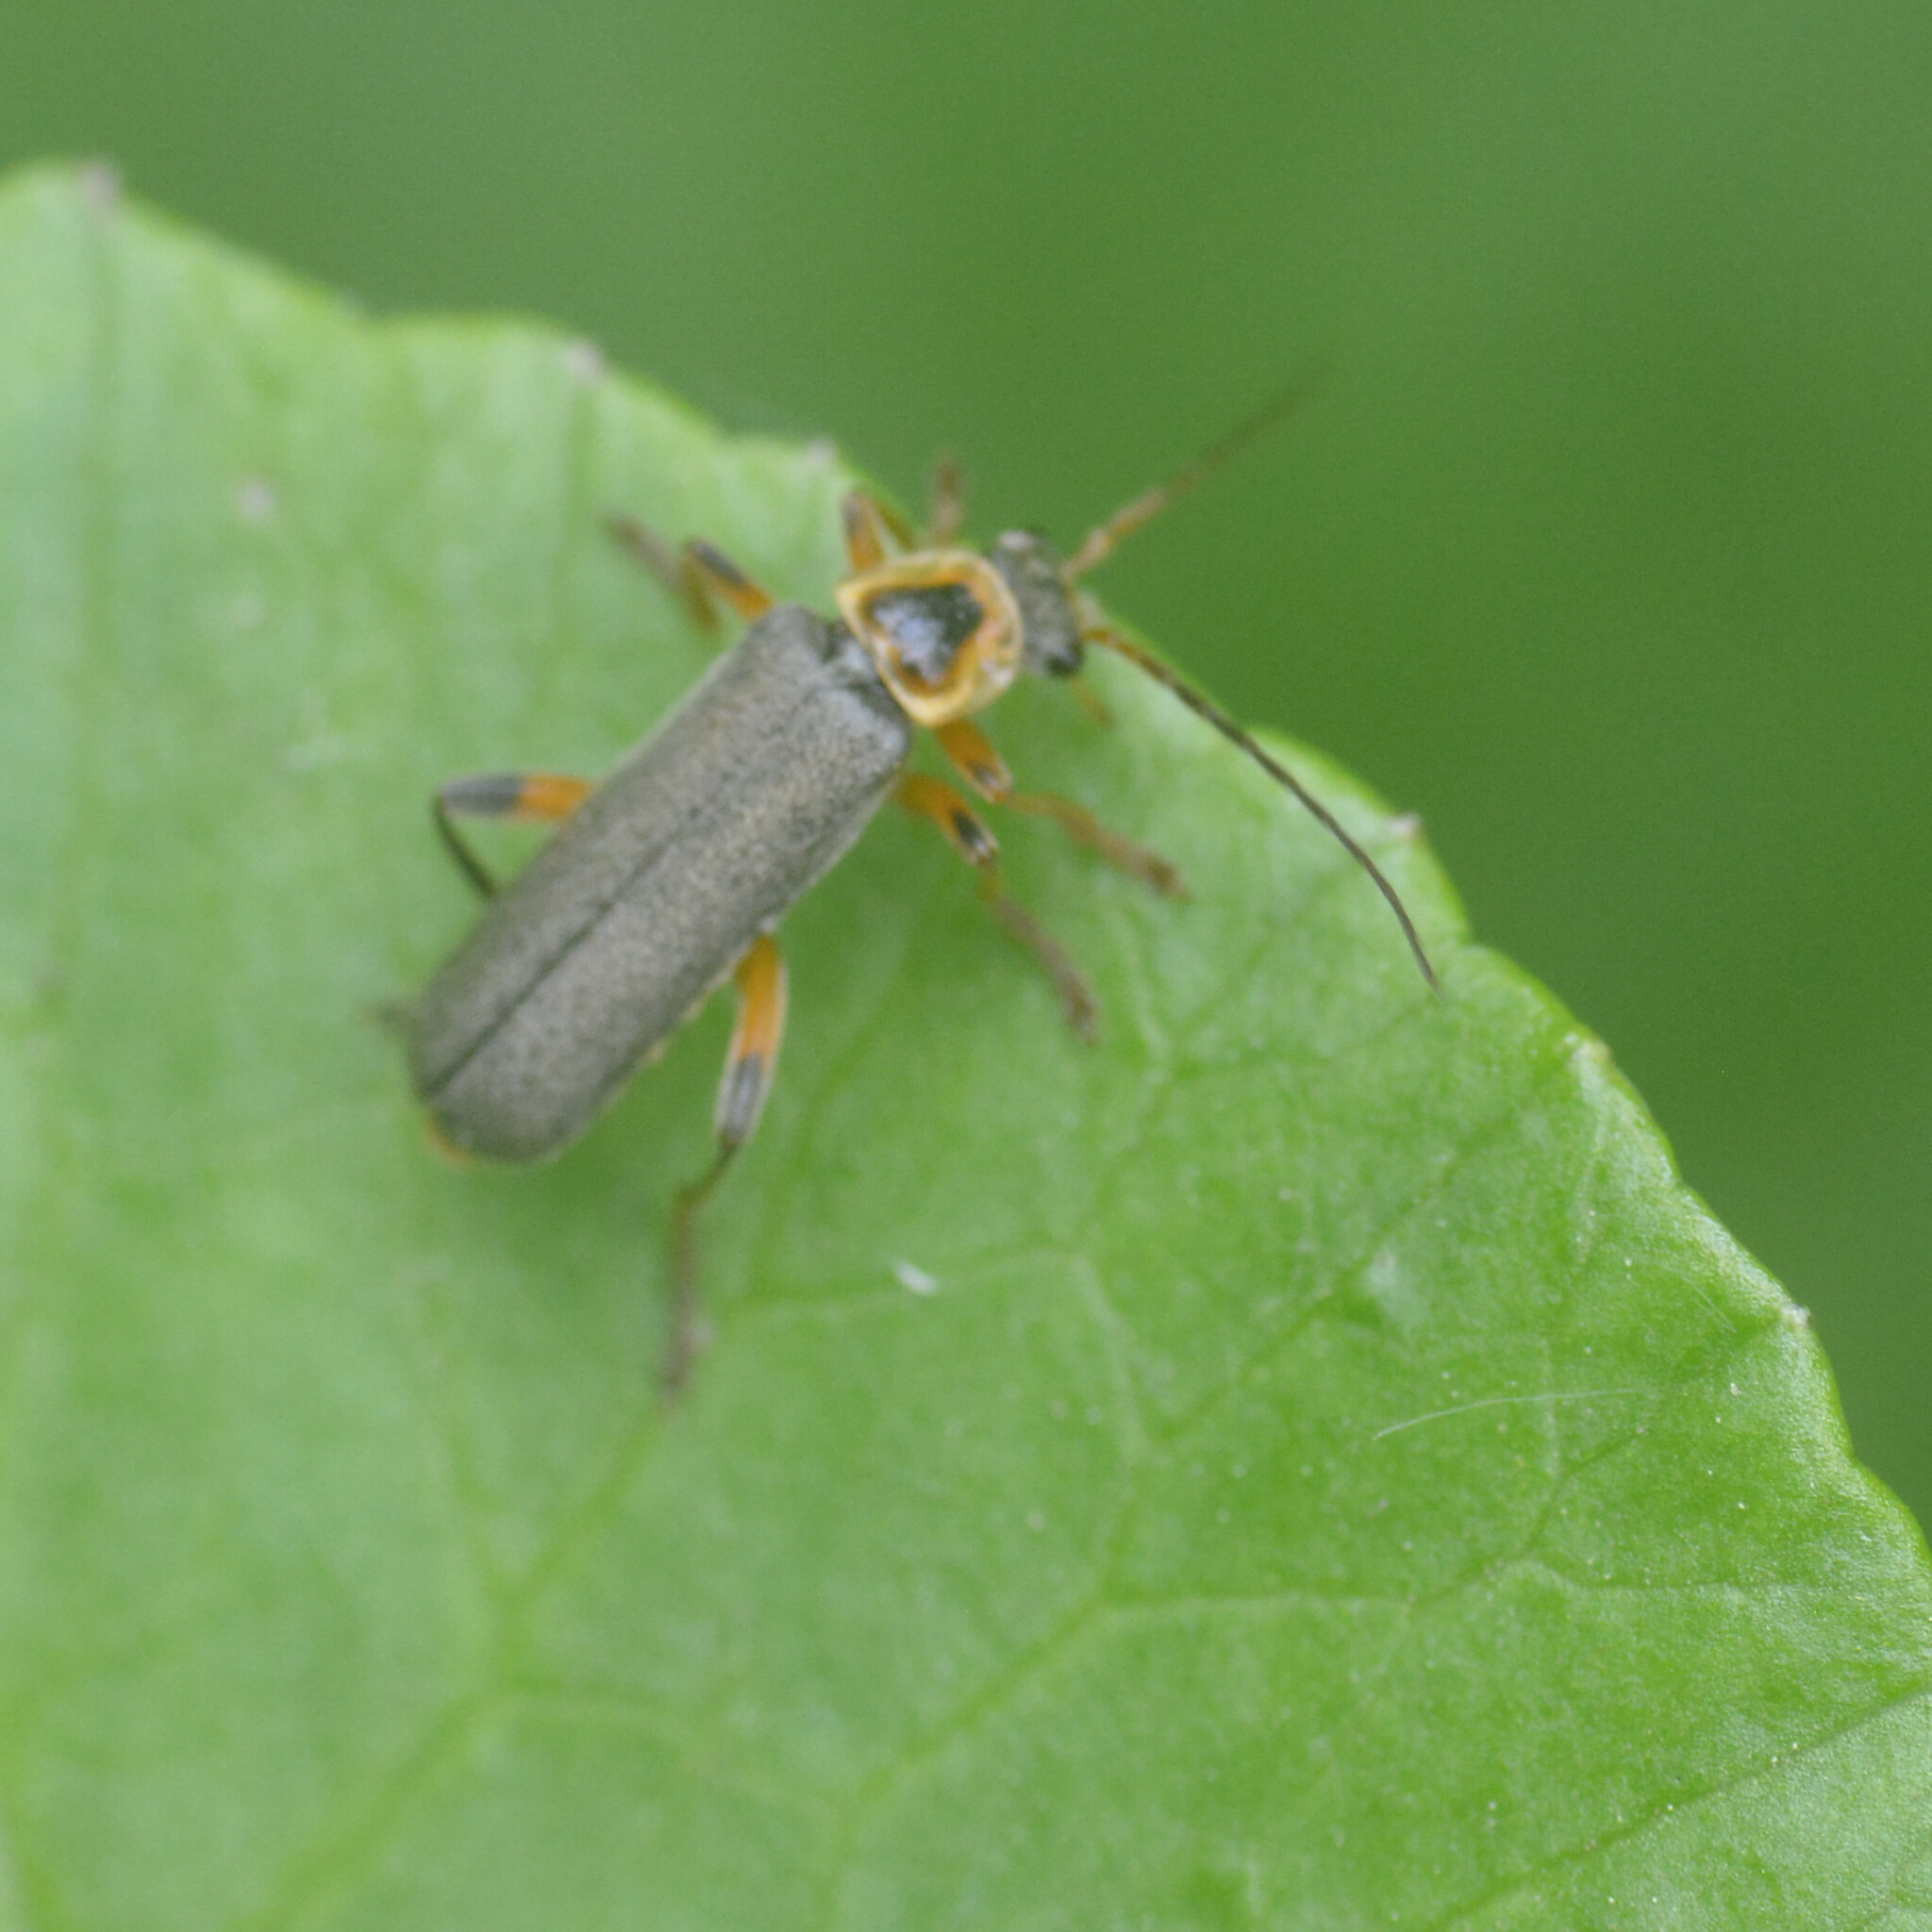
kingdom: Animalia
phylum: Arthropoda
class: Insecta
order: Coleoptera
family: Cantharidae
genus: Cantharis
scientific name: Cantharis nigricans
